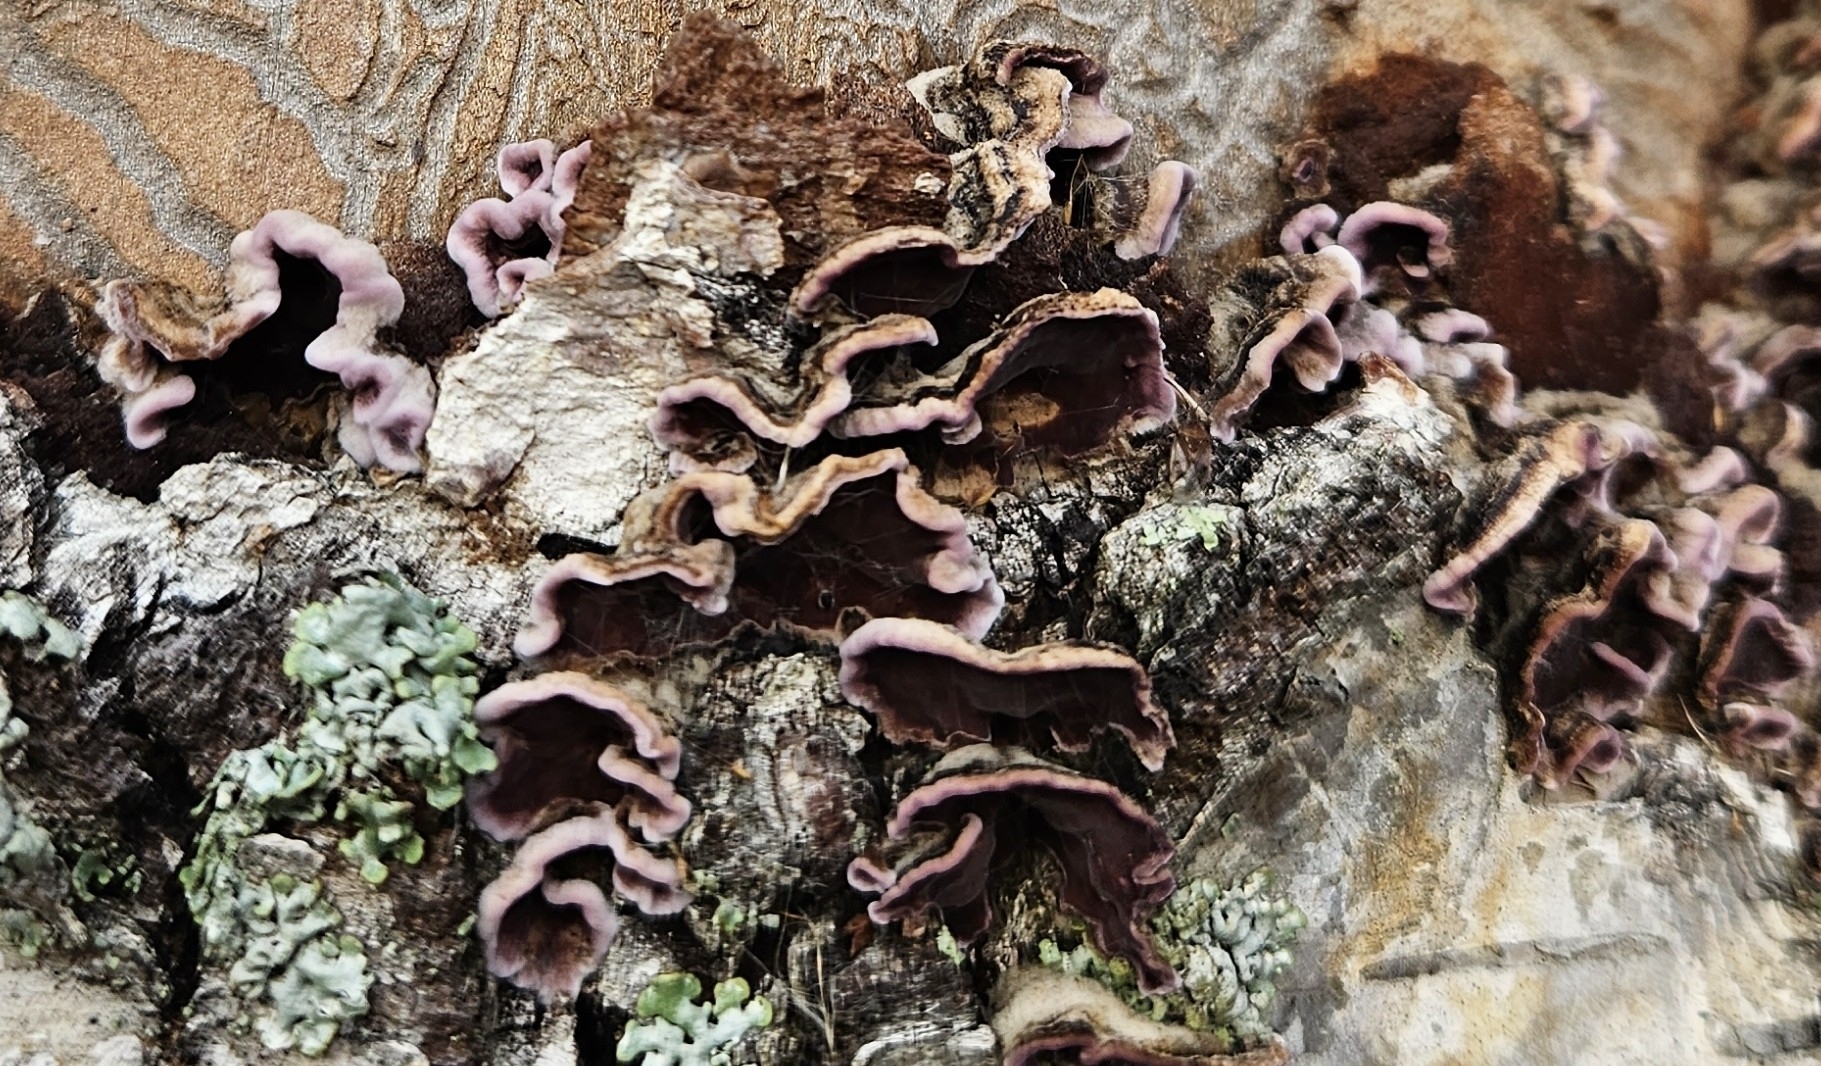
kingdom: Fungi
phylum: Basidiomycota
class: Agaricomycetes
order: Agaricales
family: Cyphellaceae
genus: Chondrostereum
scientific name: Chondrostereum purpureum
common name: Silver leaf disease
